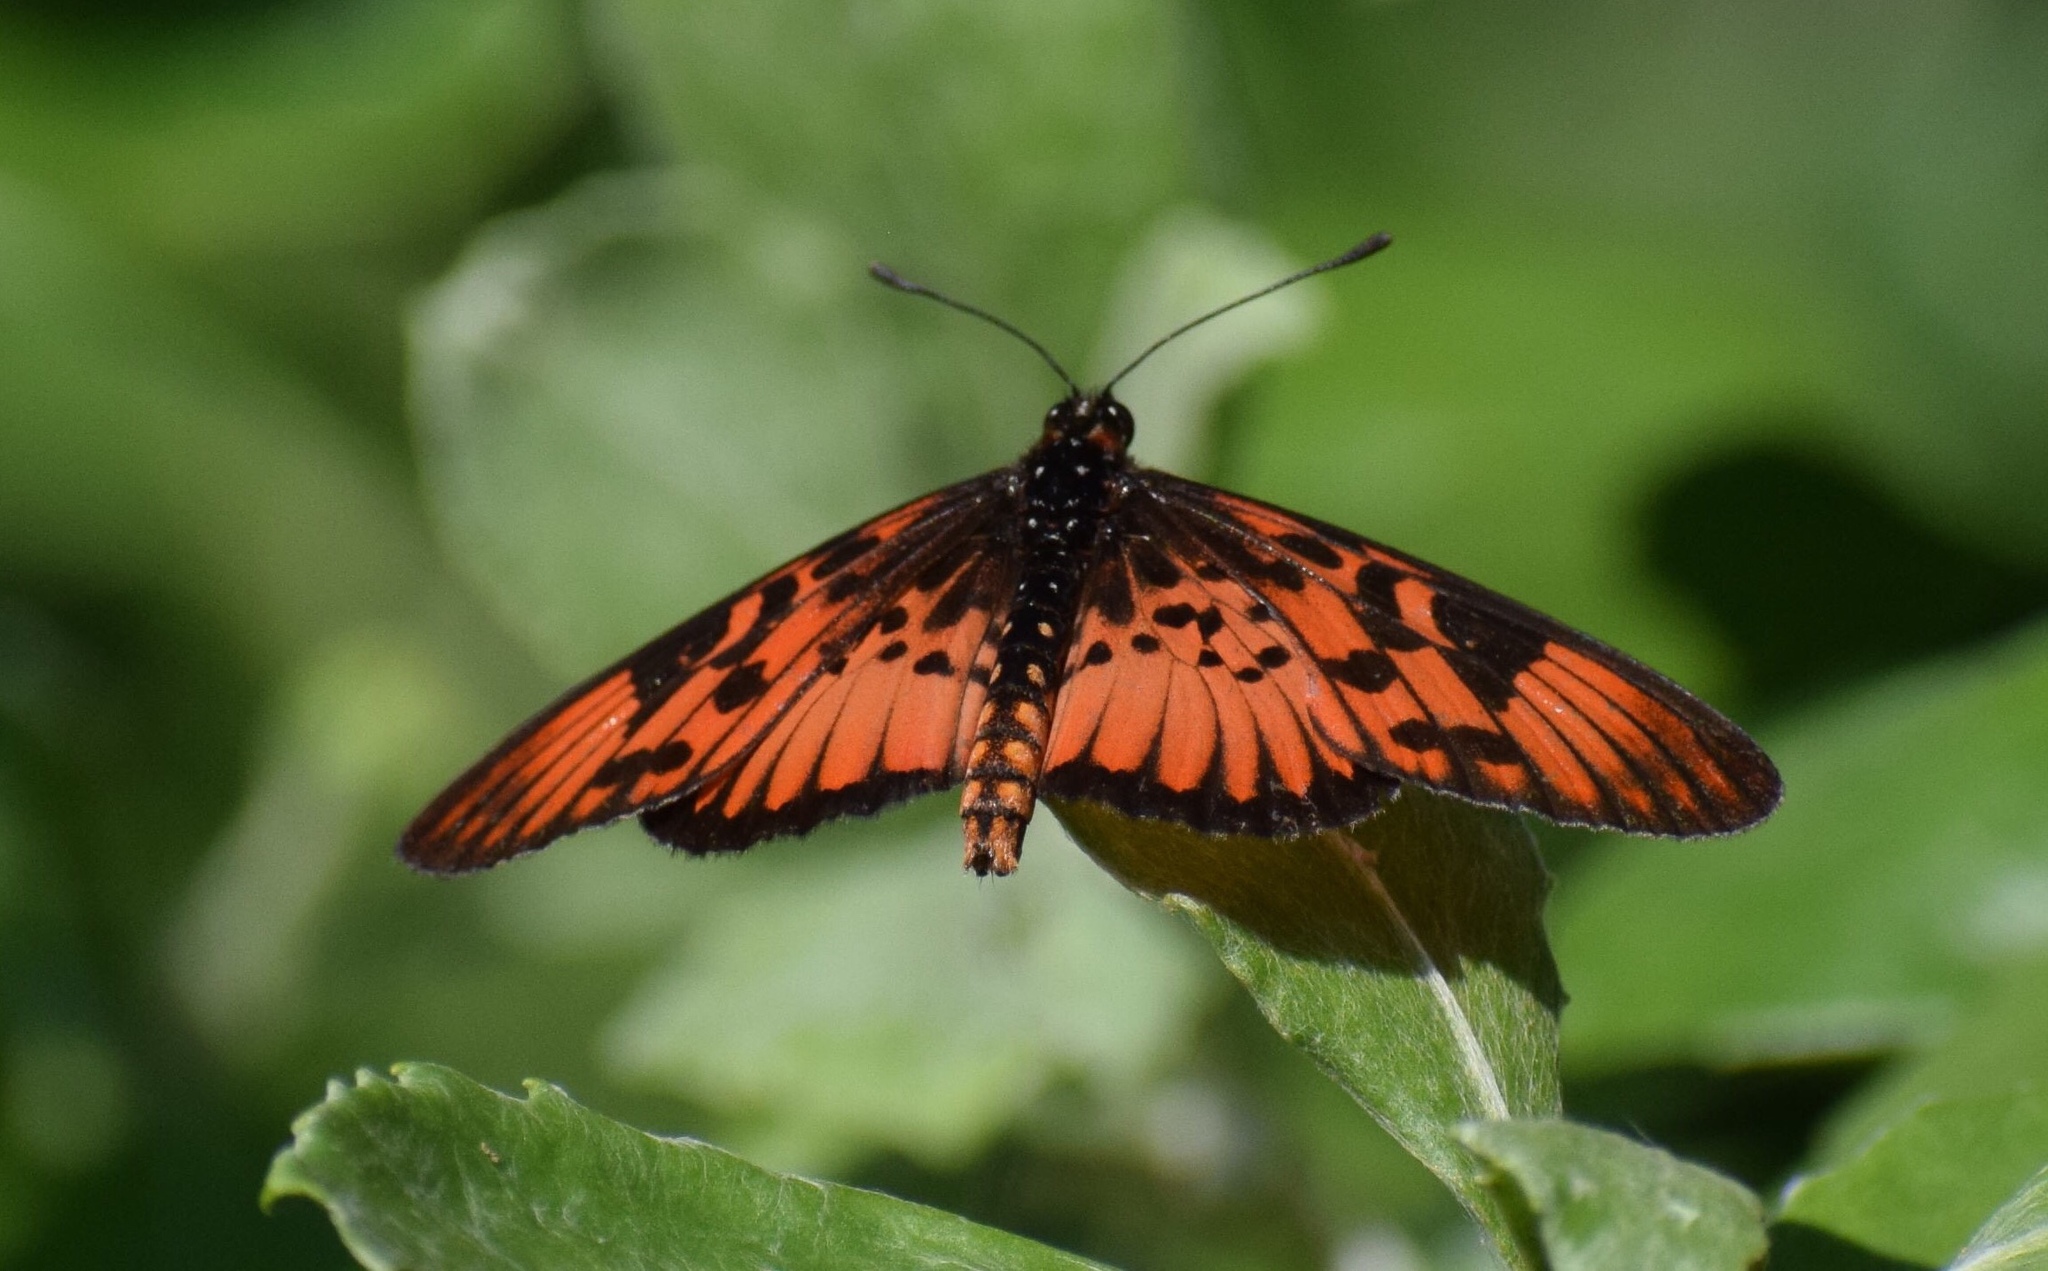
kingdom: Animalia
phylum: Arthropoda
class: Insecta
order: Lepidoptera
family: Nymphalidae
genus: Rubraea
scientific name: Rubraea
